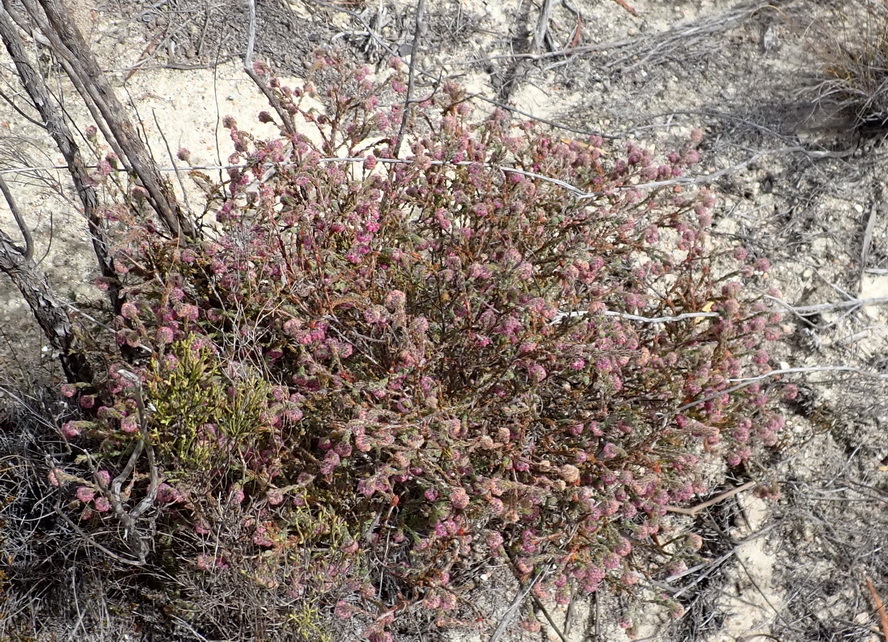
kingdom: Plantae
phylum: Tracheophyta
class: Magnoliopsida
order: Ericales
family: Ericaceae
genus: Erica
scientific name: Erica solandra
